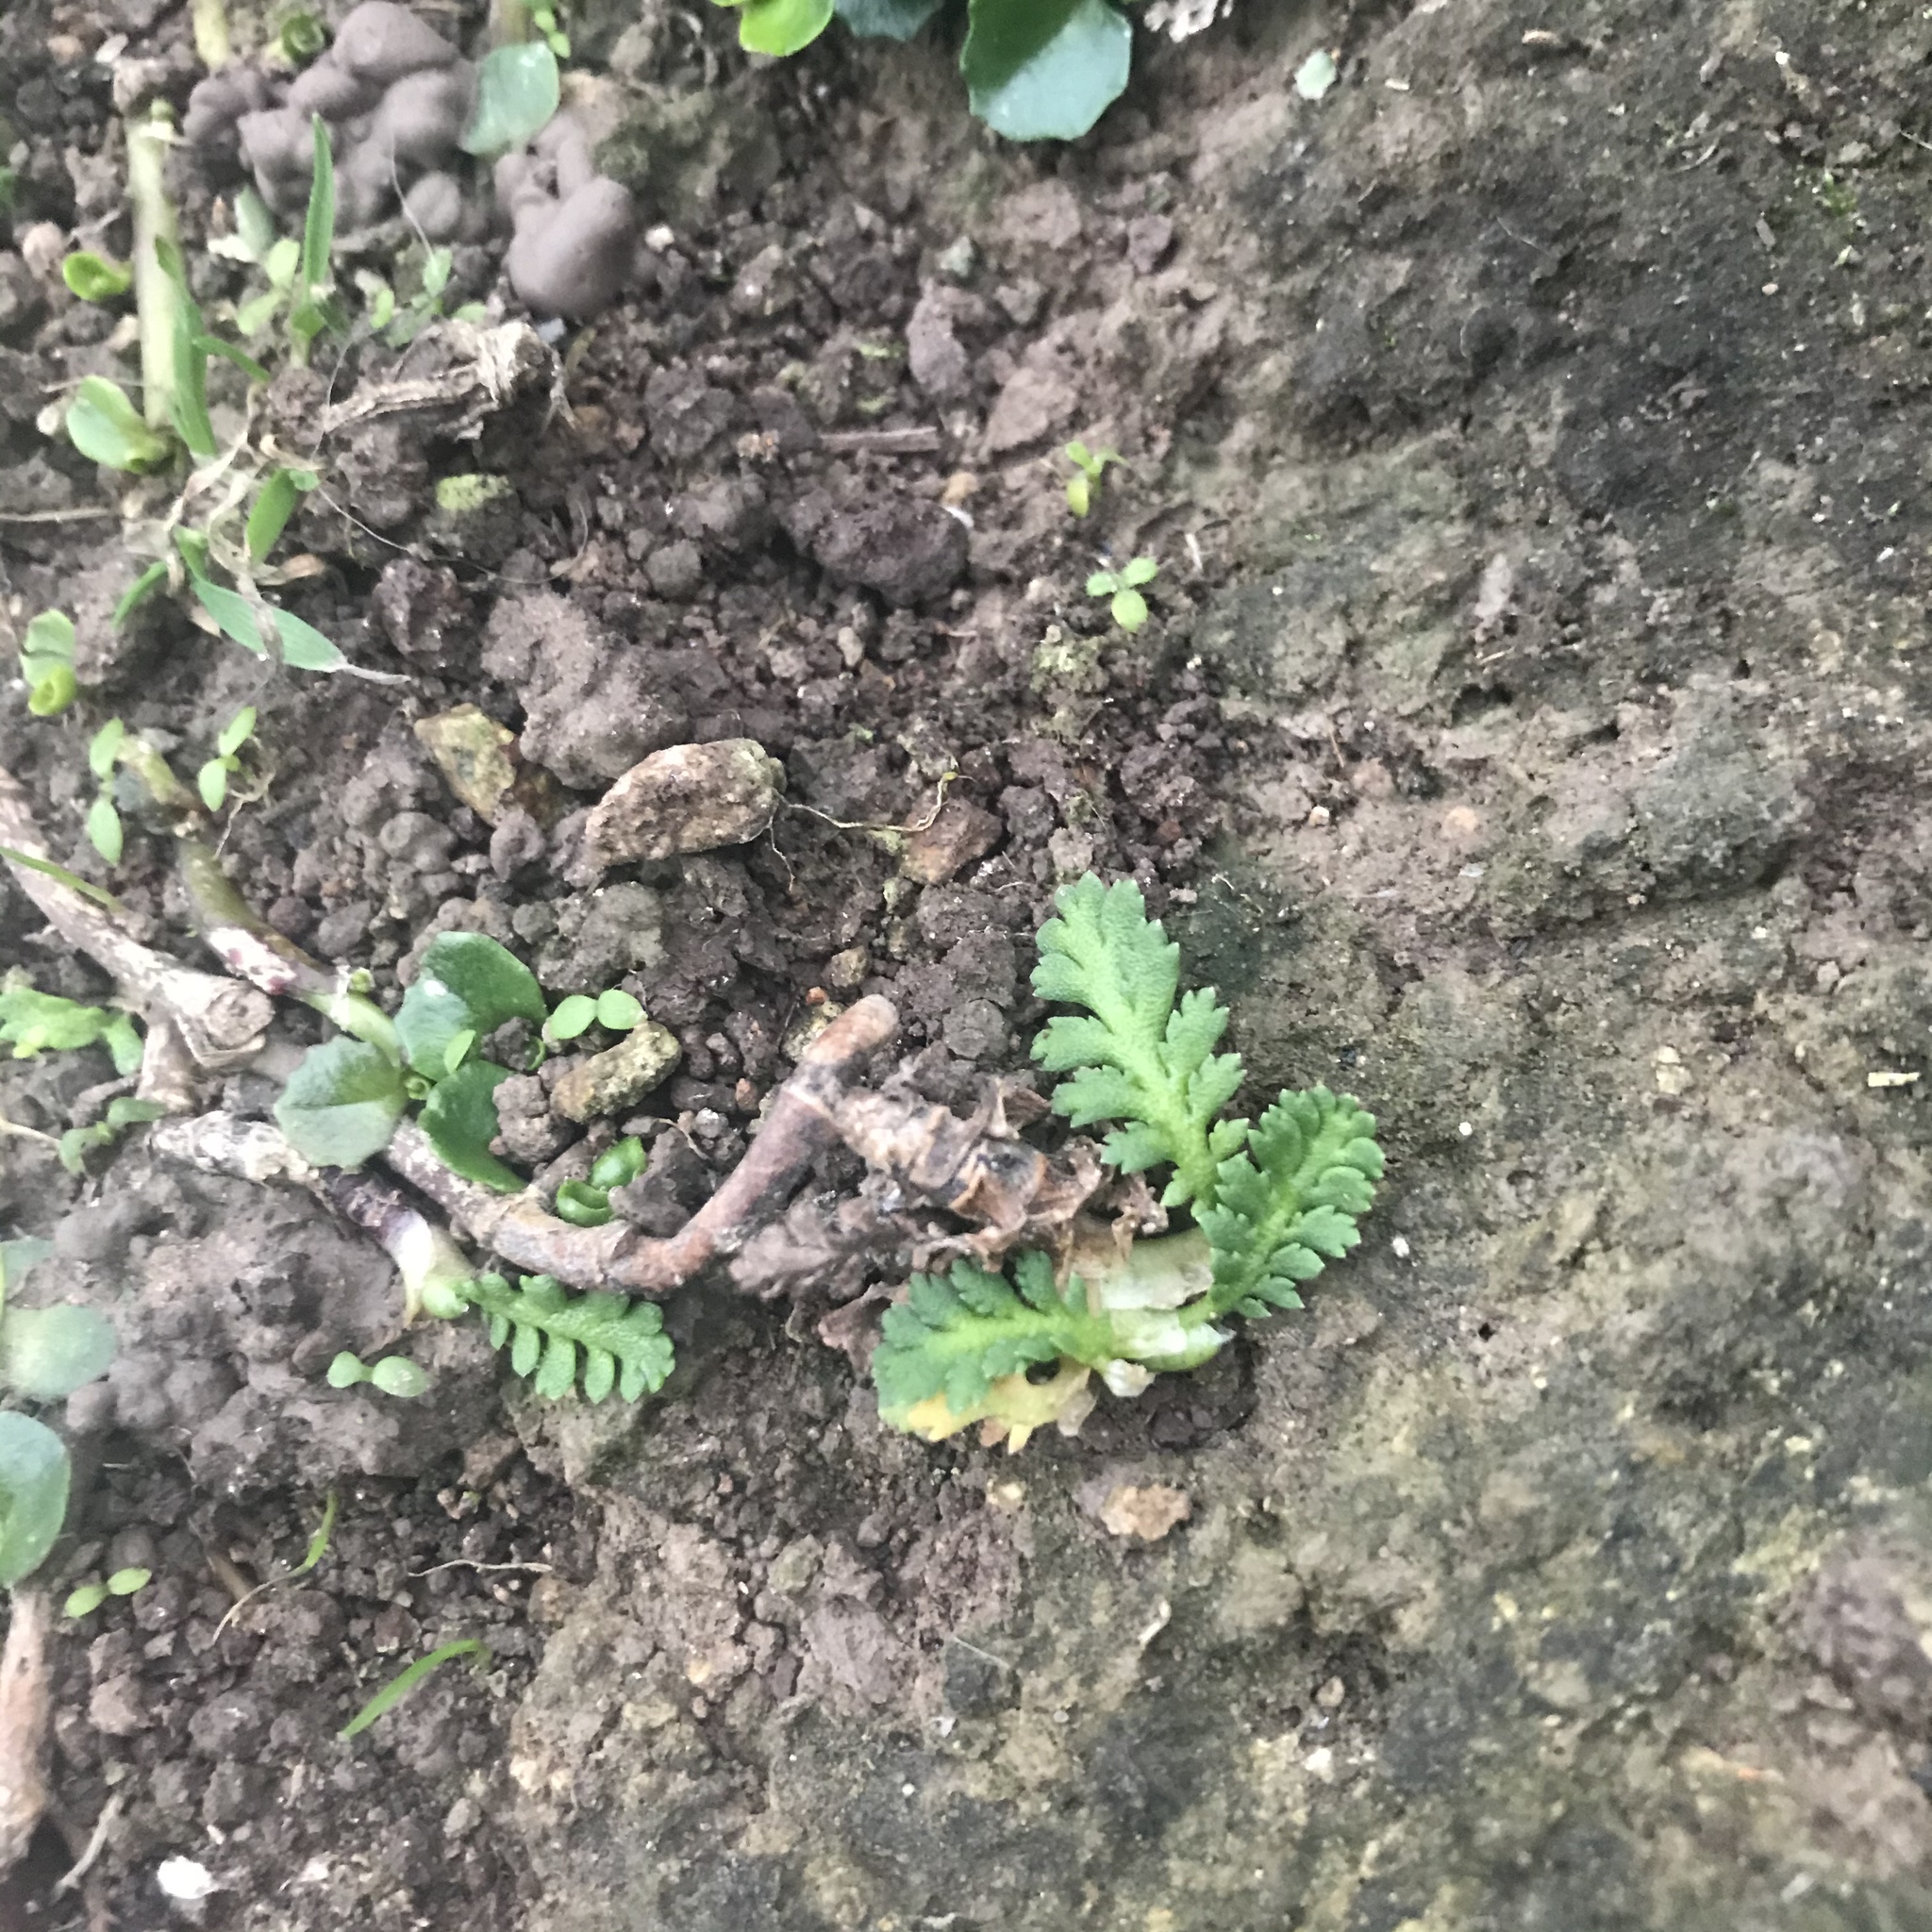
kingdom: Plantae
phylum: Tracheophyta
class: Magnoliopsida
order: Asterales
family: Asteraceae
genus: Leptinella
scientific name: Leptinella potentillina
